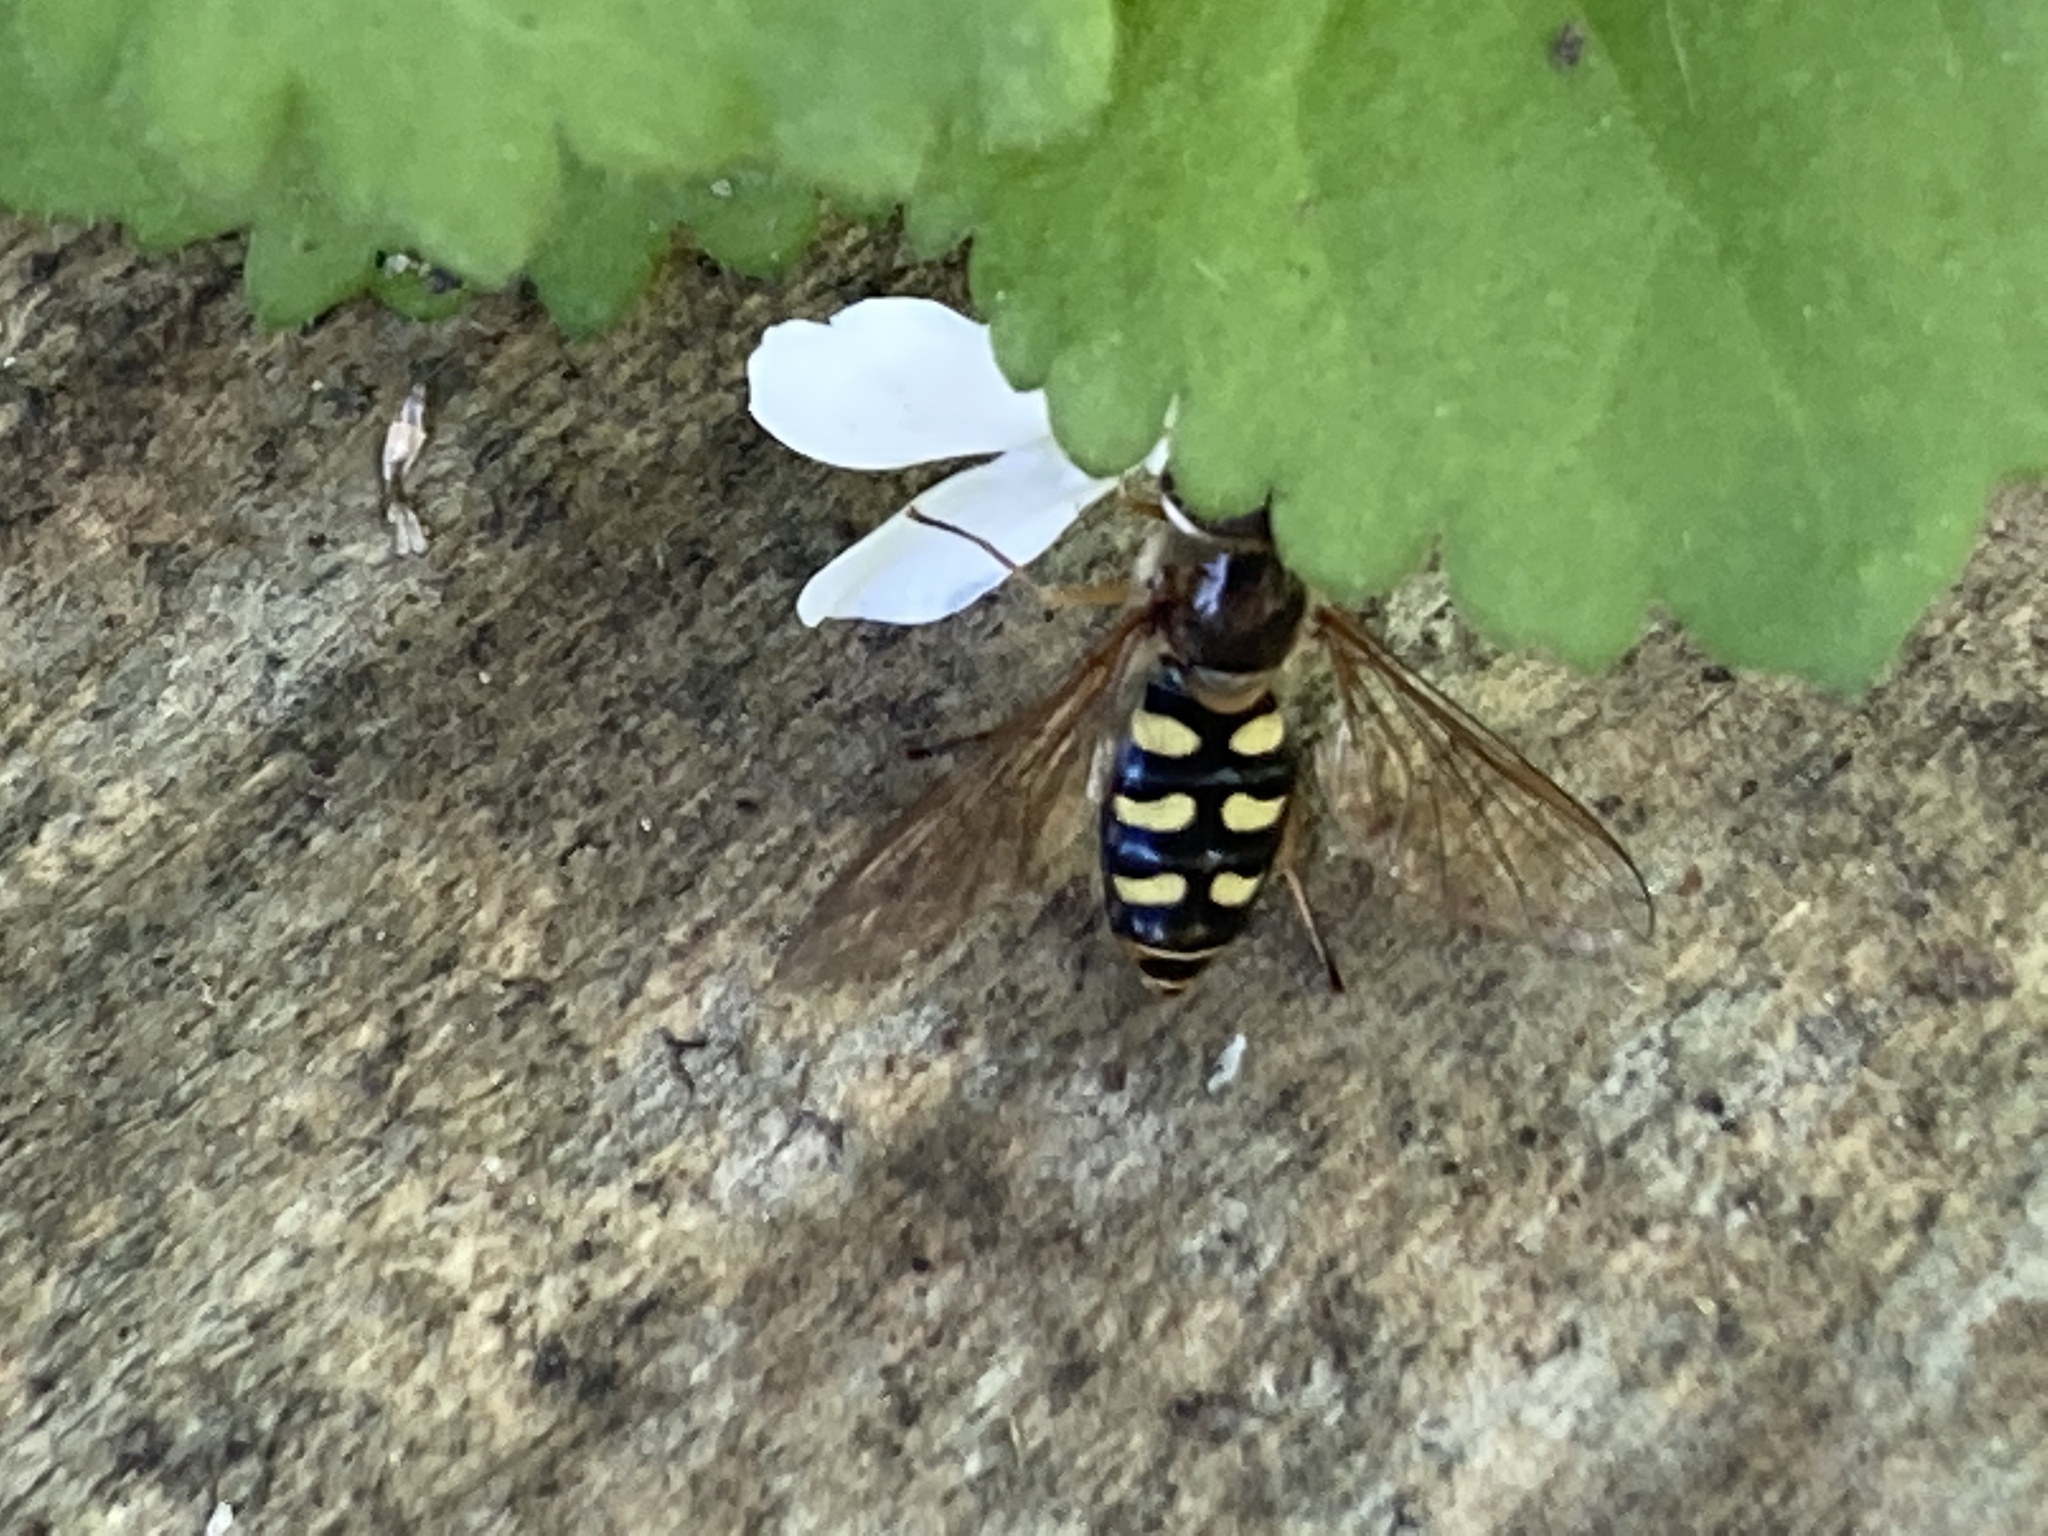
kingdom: Animalia
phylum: Arthropoda
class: Insecta
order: Diptera
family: Syrphidae
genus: Eupeodes
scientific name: Eupeodes
